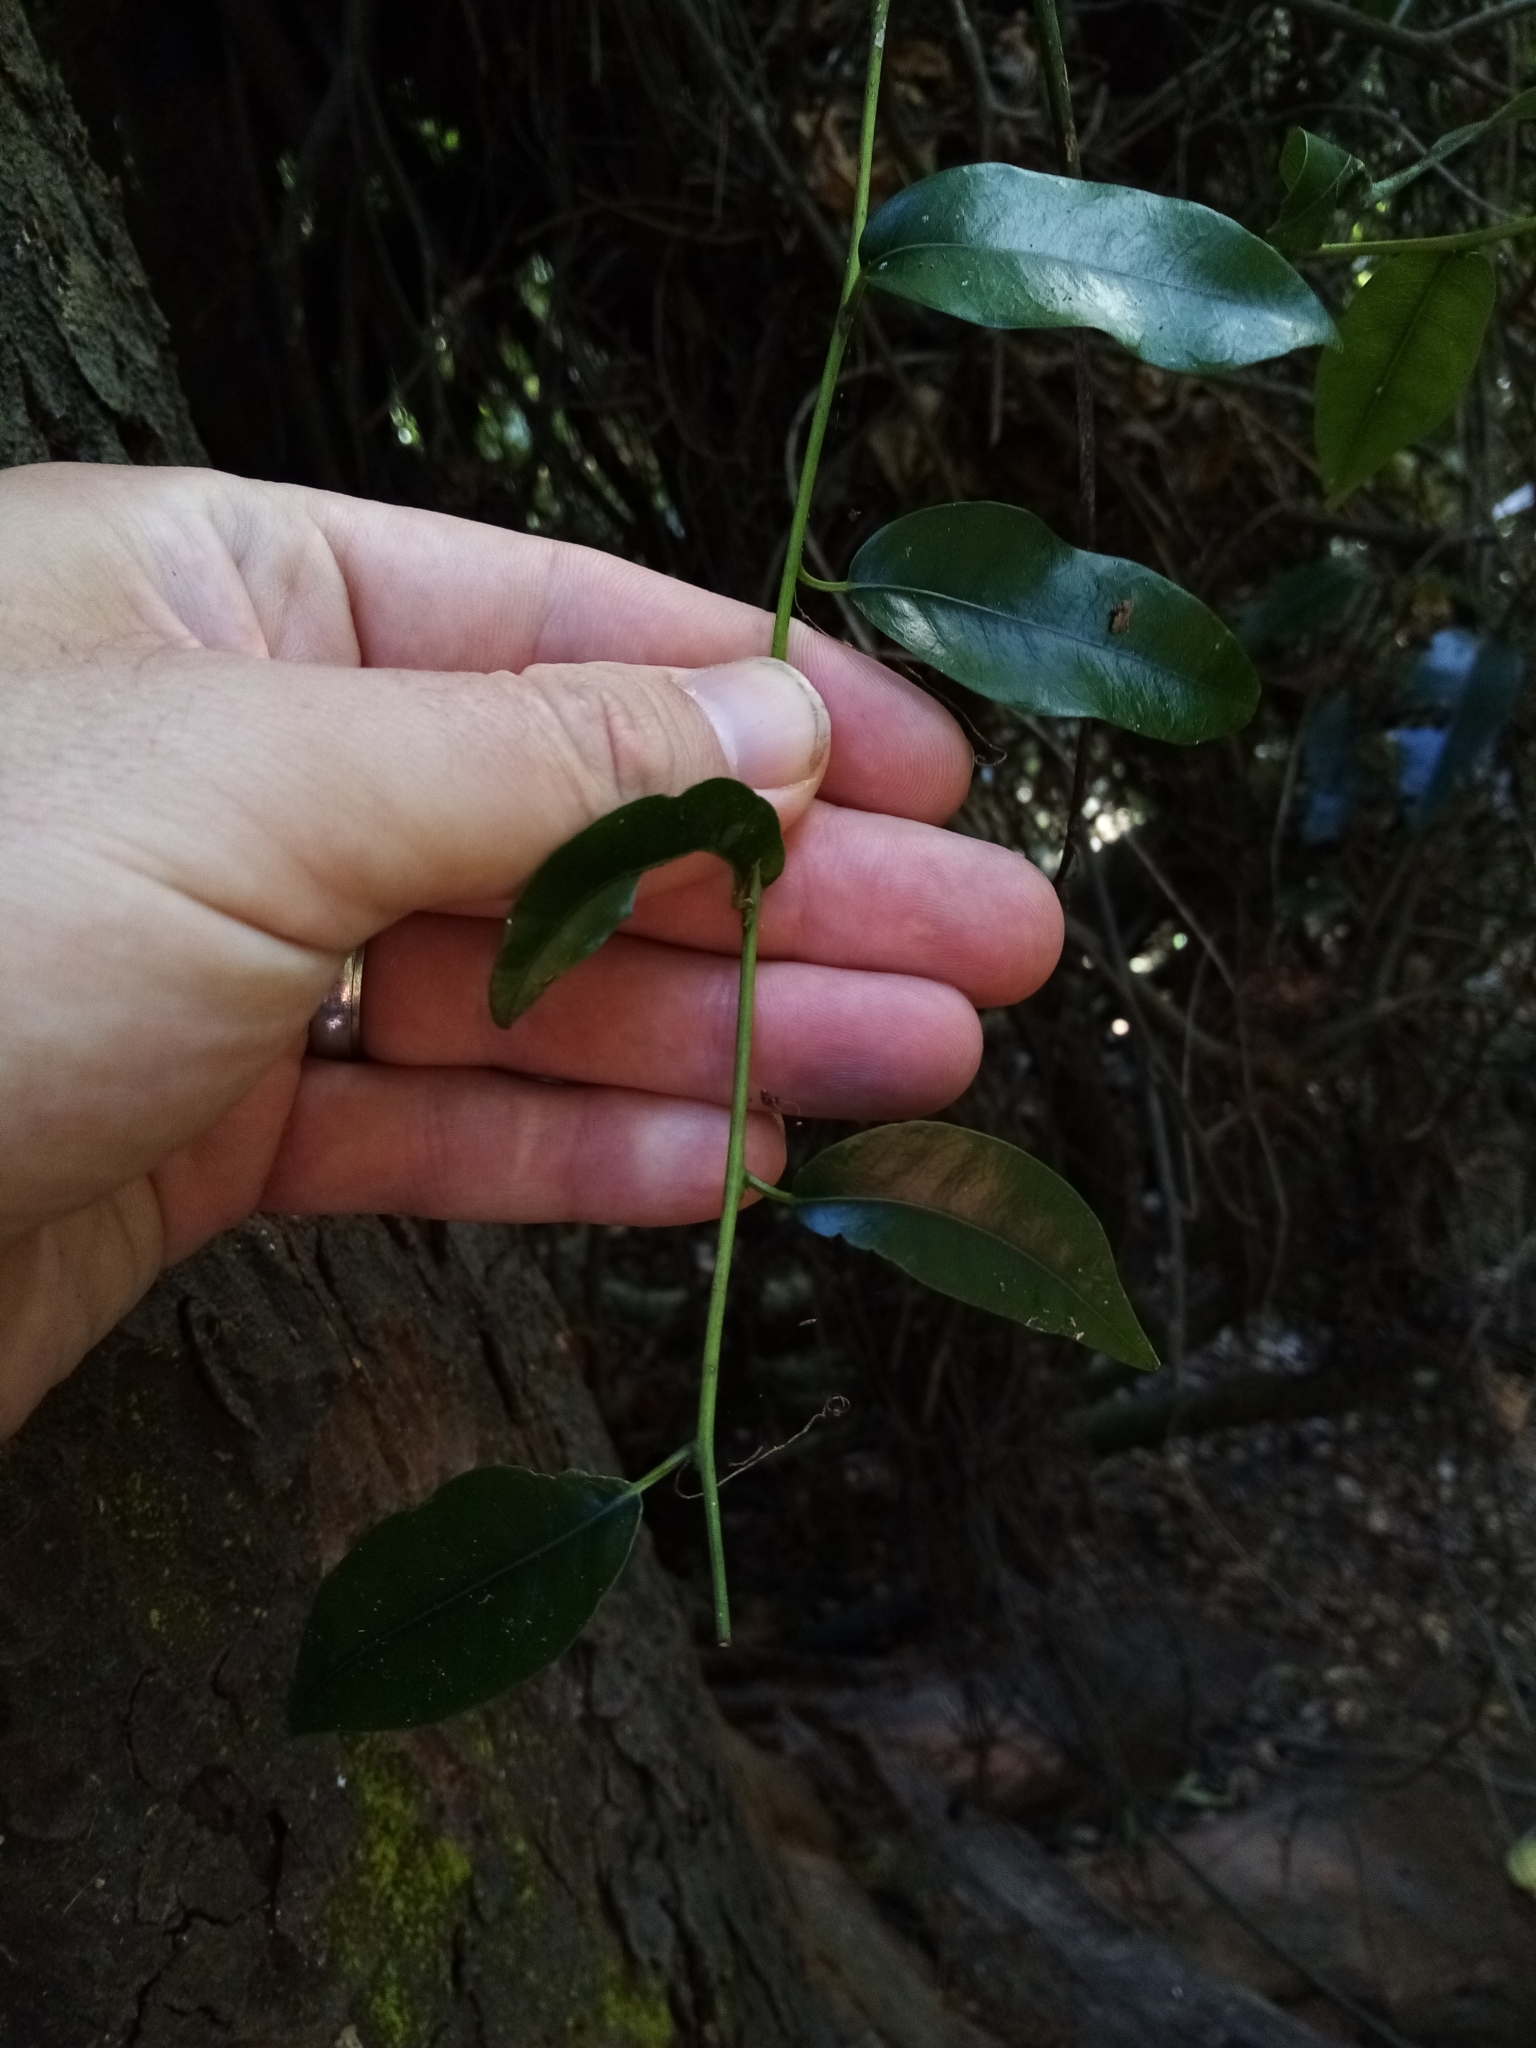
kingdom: Plantae
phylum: Tracheophyta
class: Magnoliopsida
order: Malpighiales
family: Passifloraceae
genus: Passiflora
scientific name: Passiflora tetrandra
